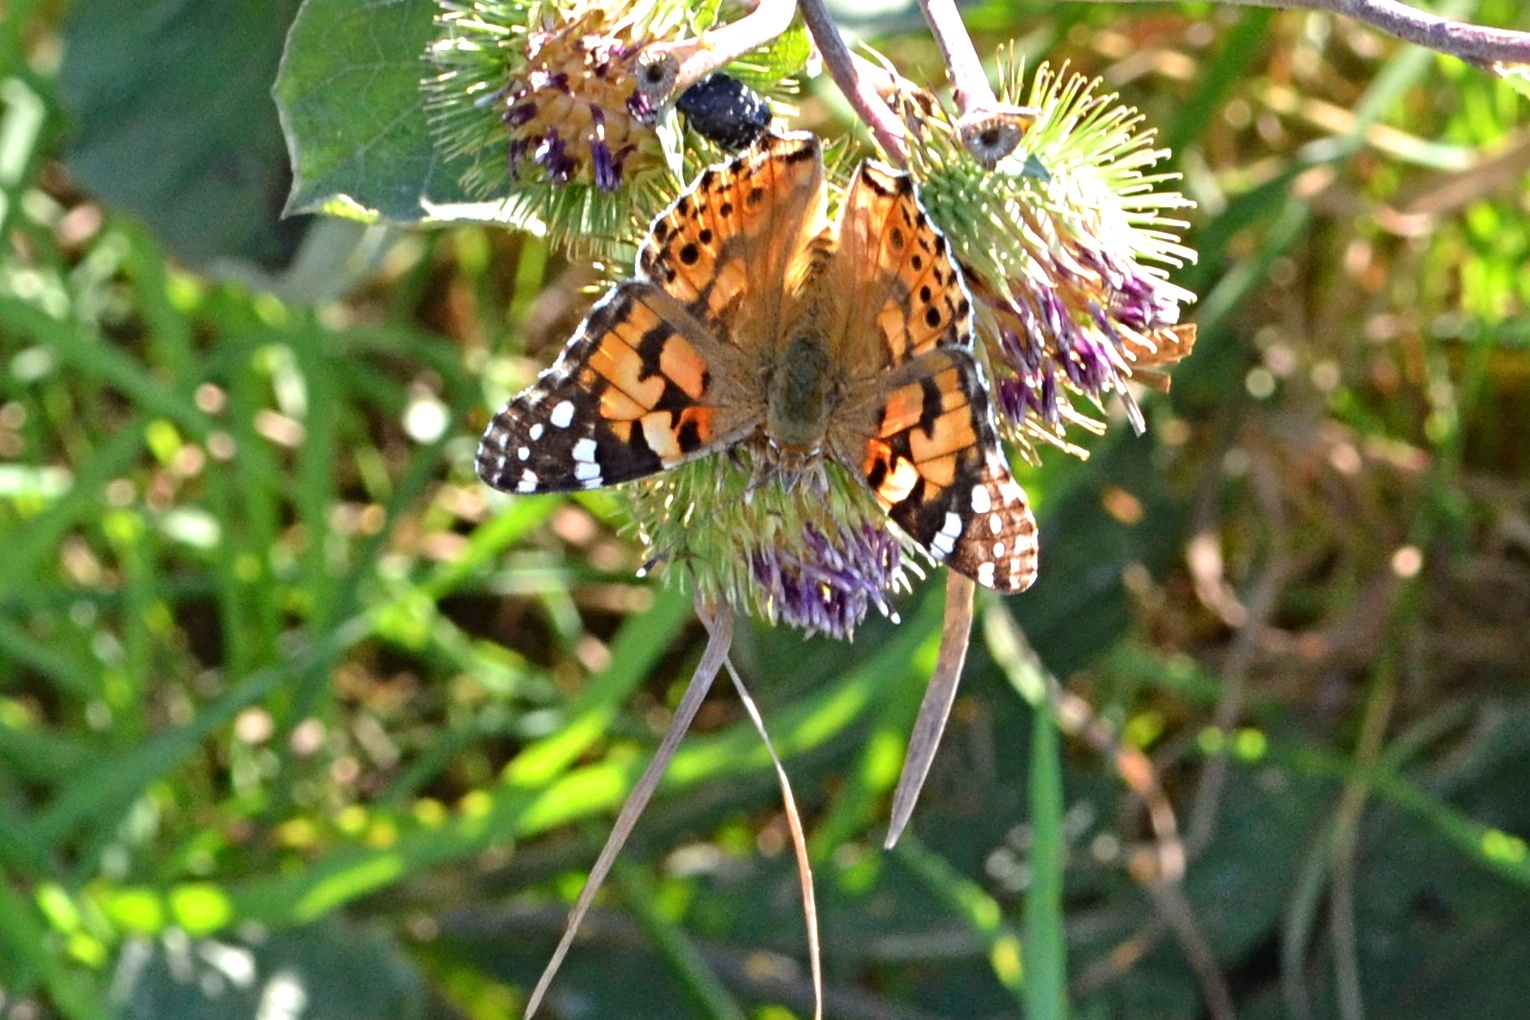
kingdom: Animalia
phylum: Arthropoda
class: Insecta
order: Lepidoptera
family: Nymphalidae
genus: Vanessa
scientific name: Vanessa cardui
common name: Painted lady
